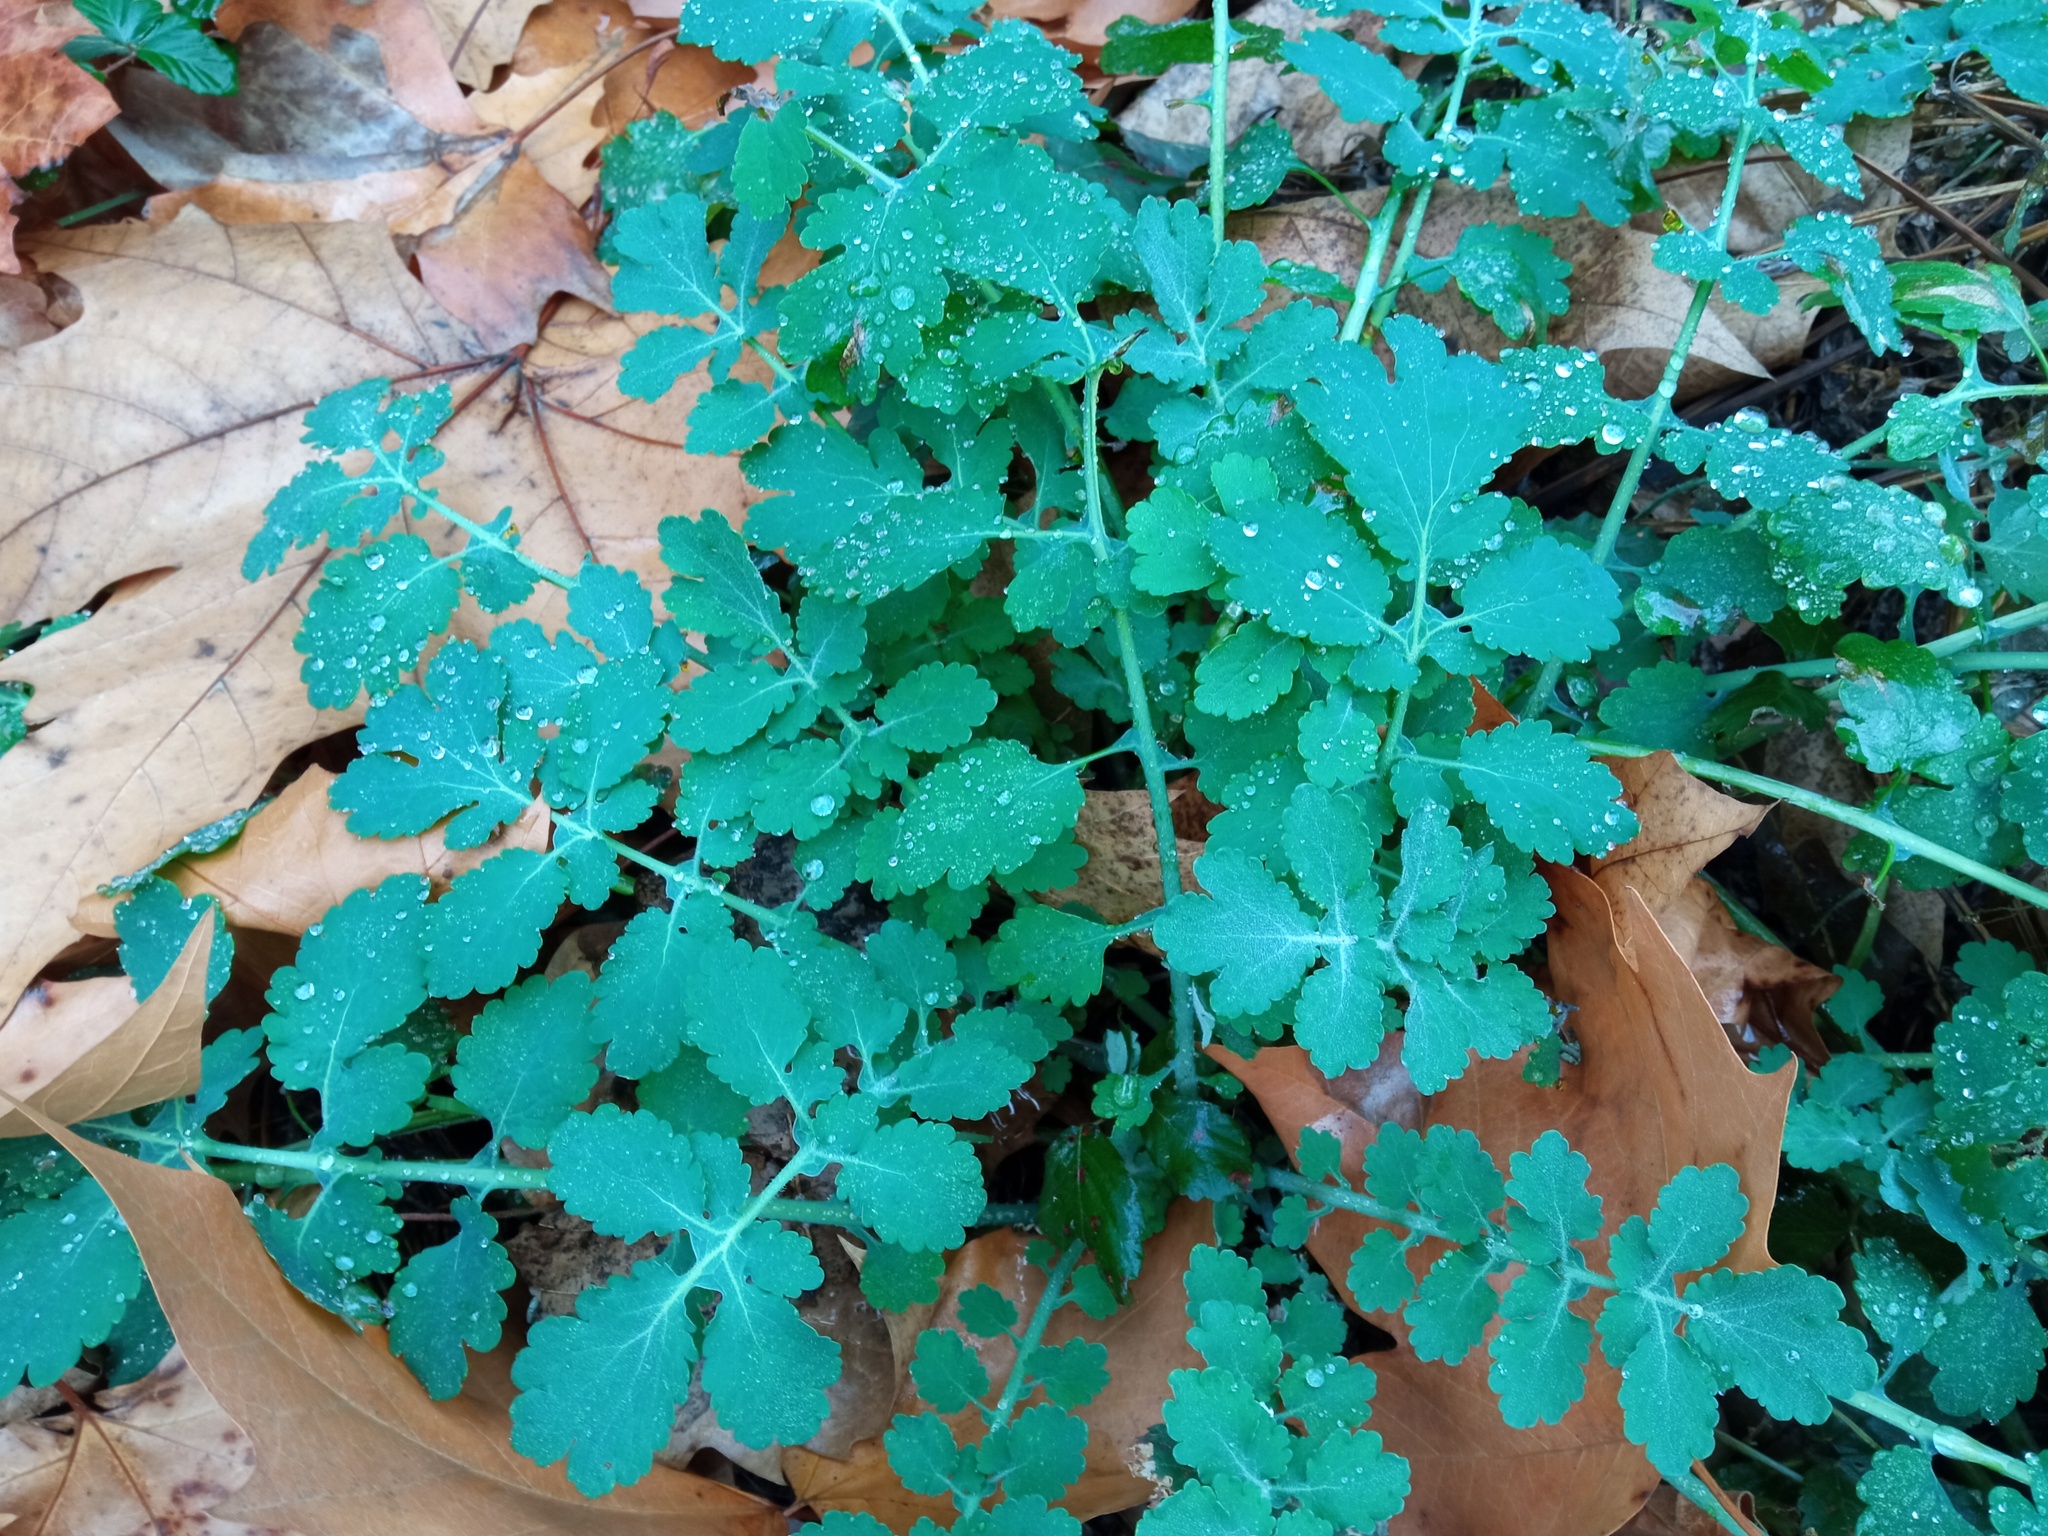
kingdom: Plantae
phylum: Tracheophyta
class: Magnoliopsida
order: Ranunculales
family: Papaveraceae
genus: Chelidonium
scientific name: Chelidonium majus
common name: Greater celandine
